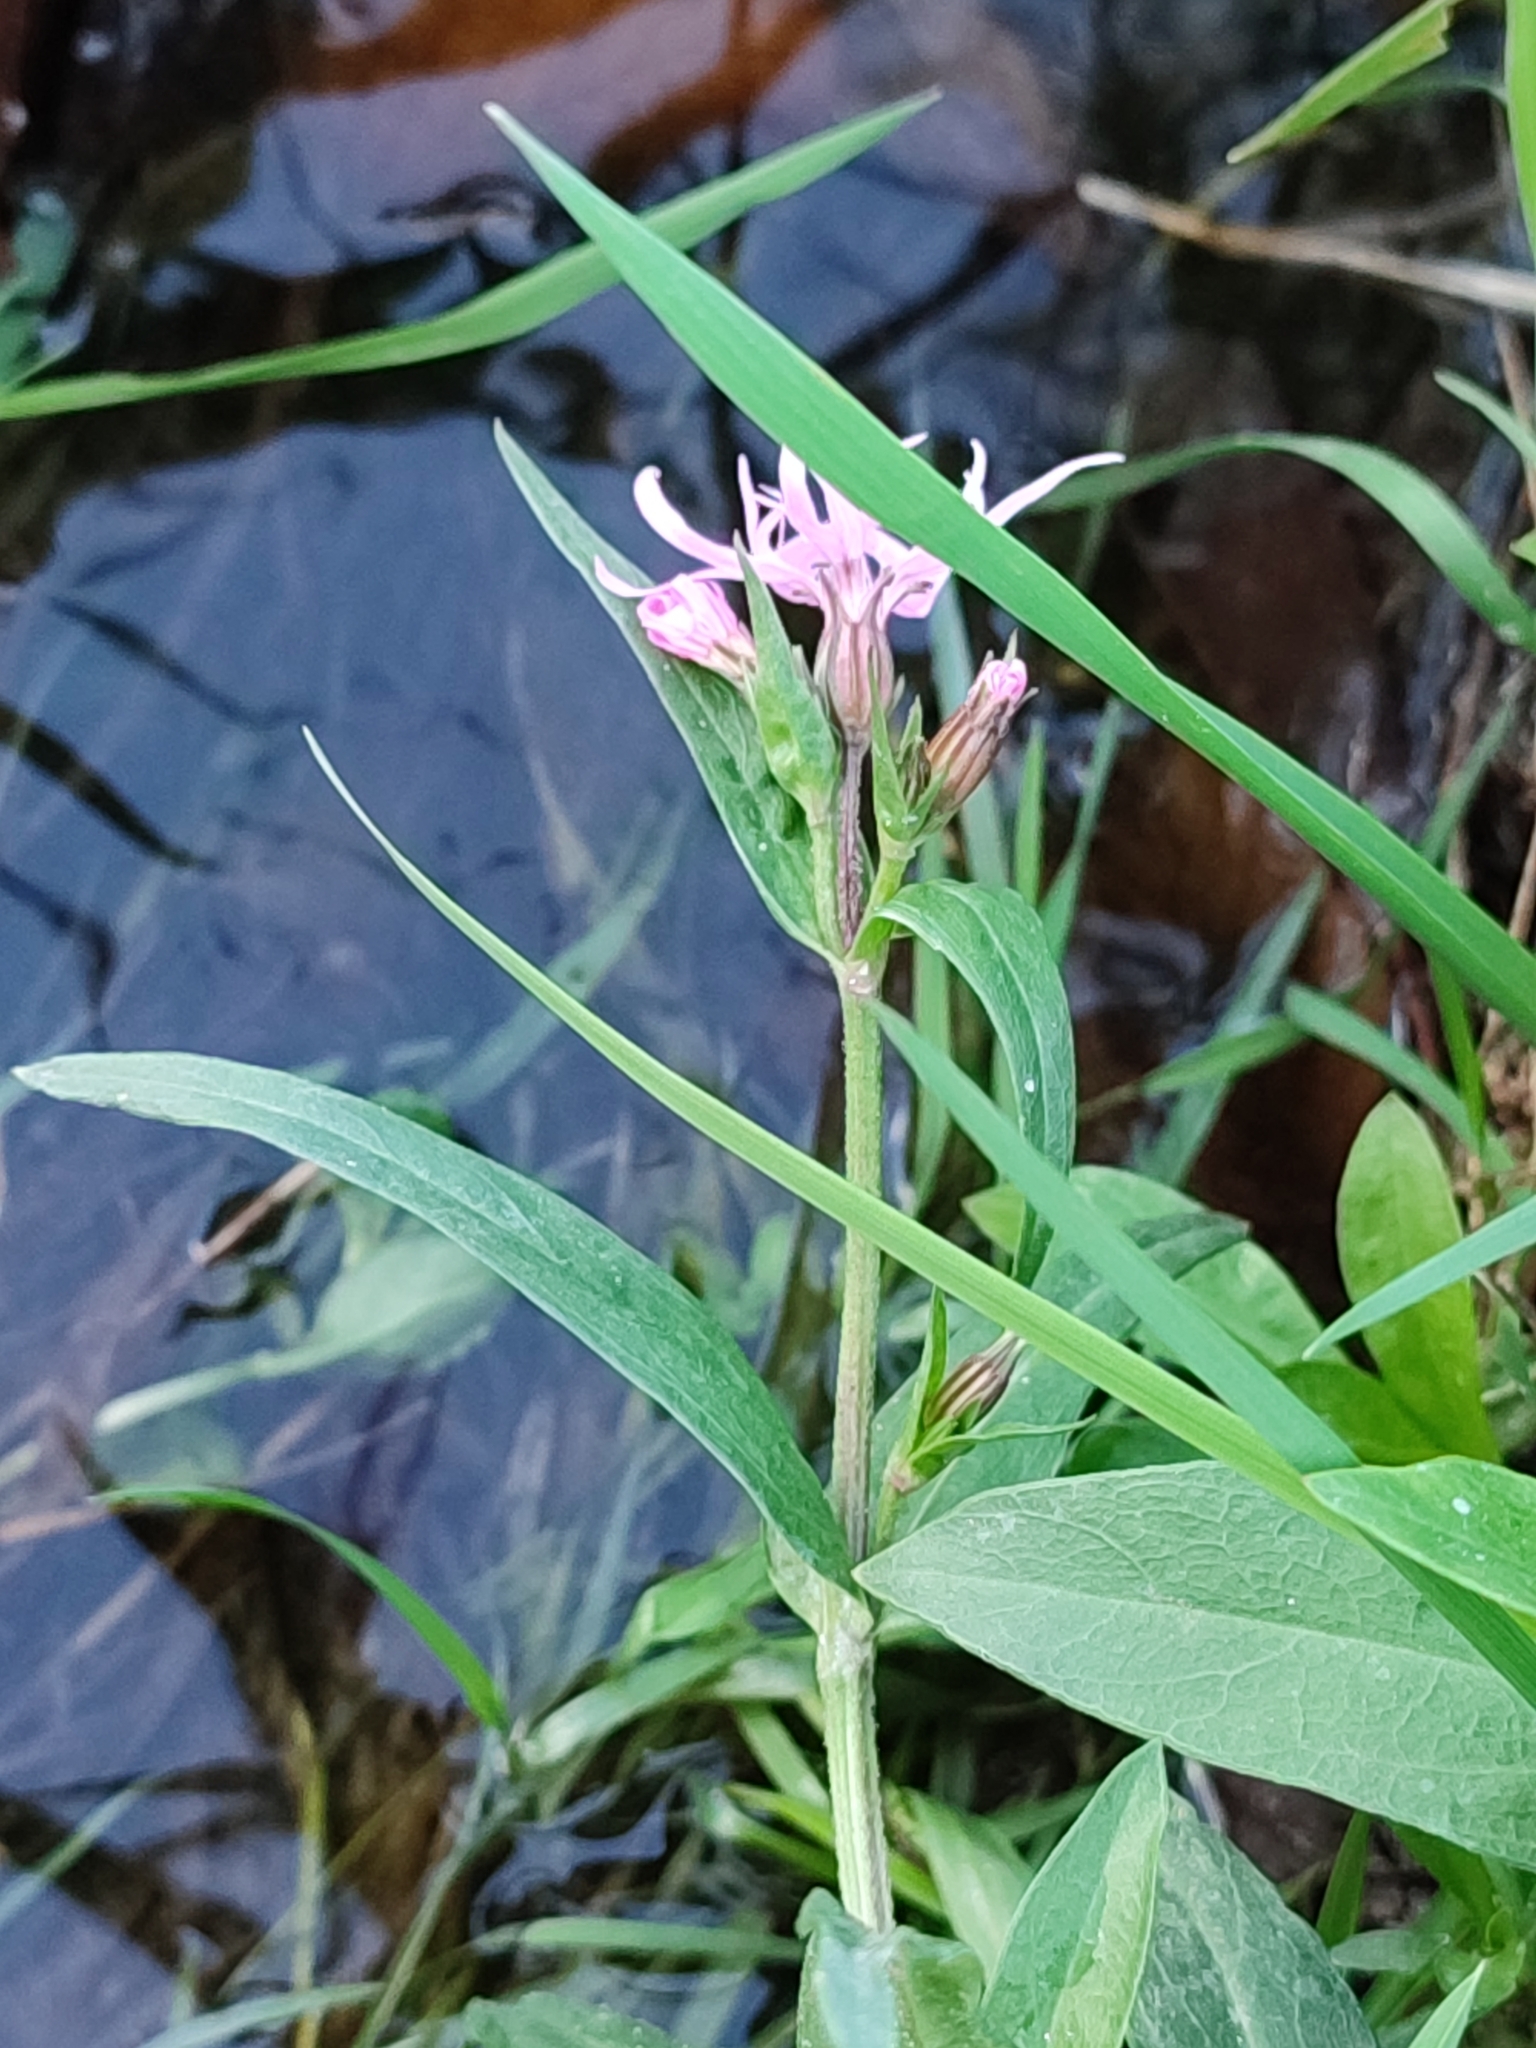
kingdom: Plantae
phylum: Tracheophyta
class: Magnoliopsida
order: Caryophyllales
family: Caryophyllaceae
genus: Silene
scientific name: Silene flos-cuculi
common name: Ragged-robin
